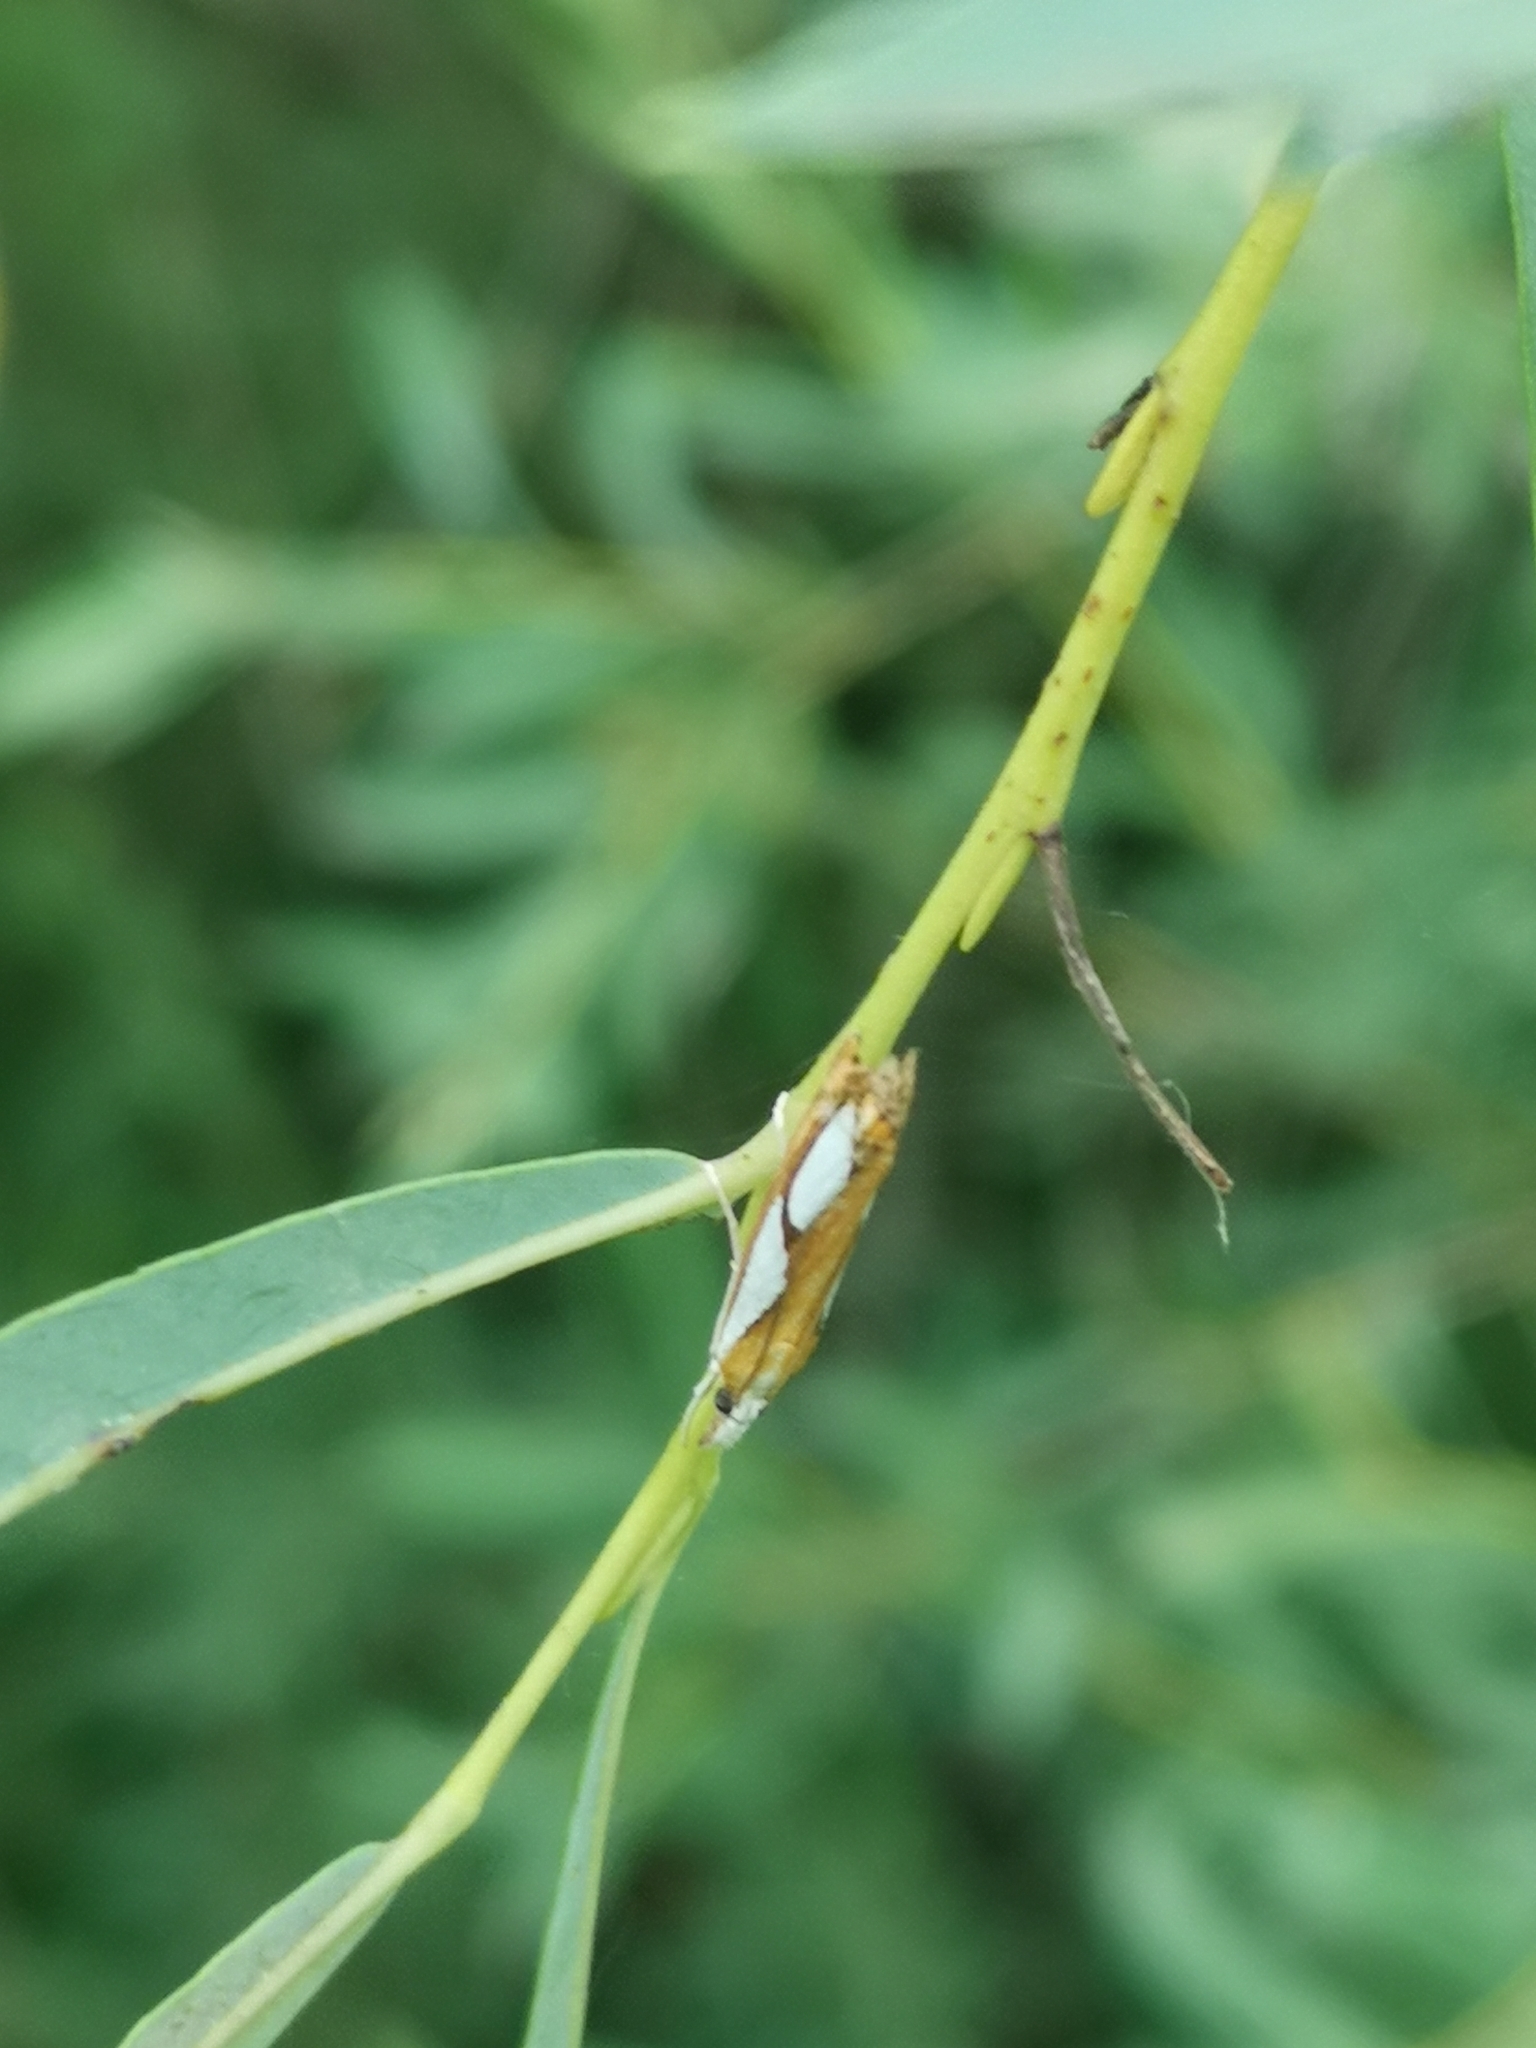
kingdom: Animalia
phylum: Arthropoda
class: Insecta
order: Lepidoptera
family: Crambidae
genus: Catoptria
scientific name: Catoptria pinella
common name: Pearl grass-veneer
